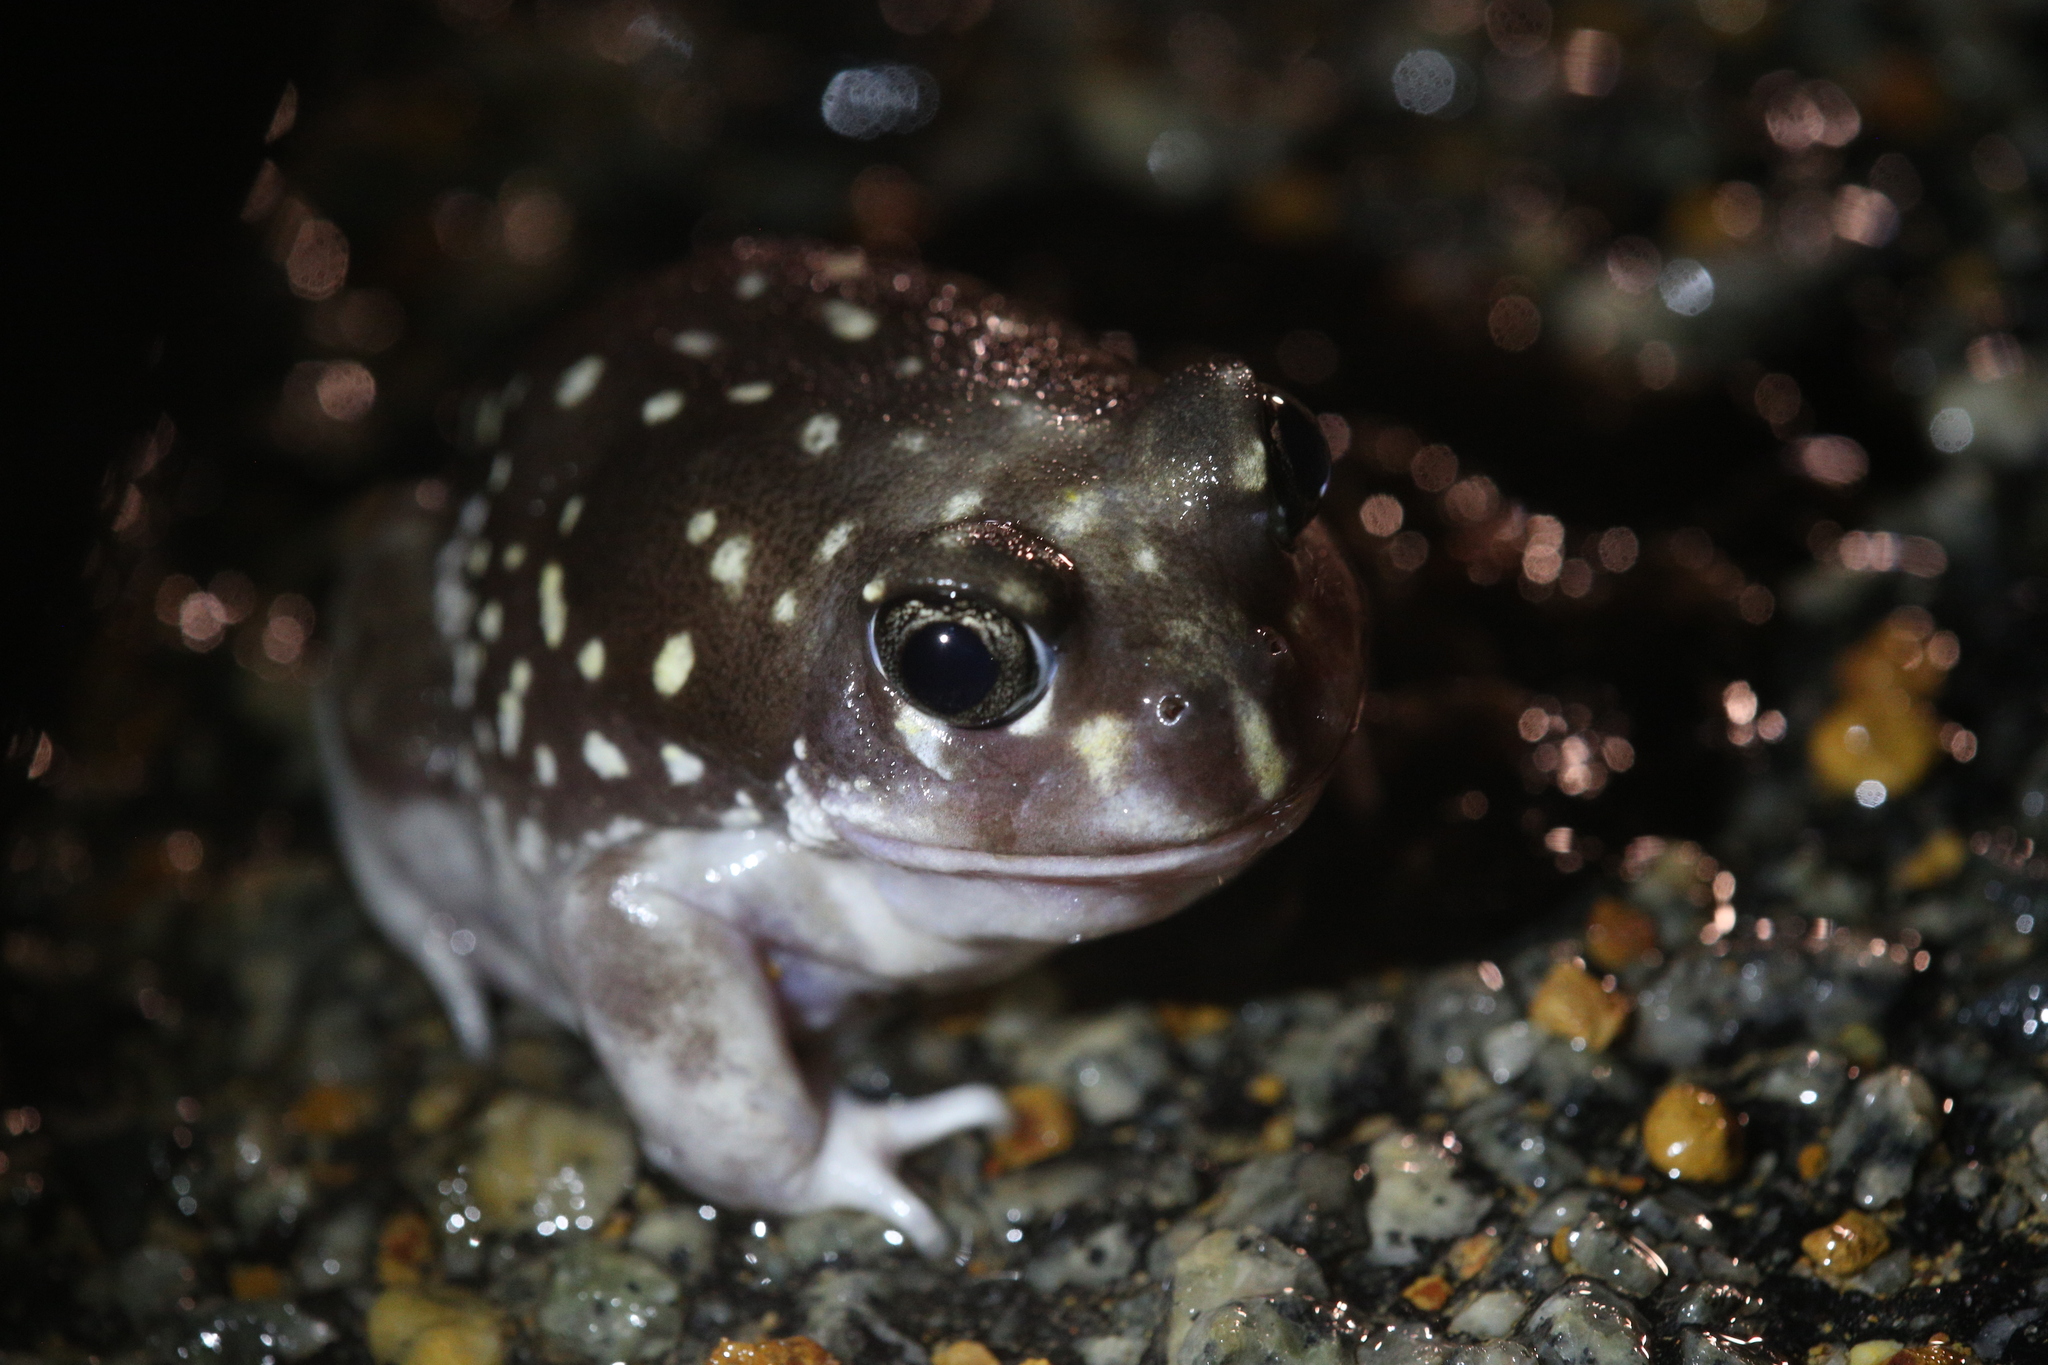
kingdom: Animalia
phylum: Chordata
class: Amphibia
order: Anura
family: Limnodynastidae
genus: Heleioporus
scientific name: Heleioporus albopunctatus
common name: Western spotted frog
